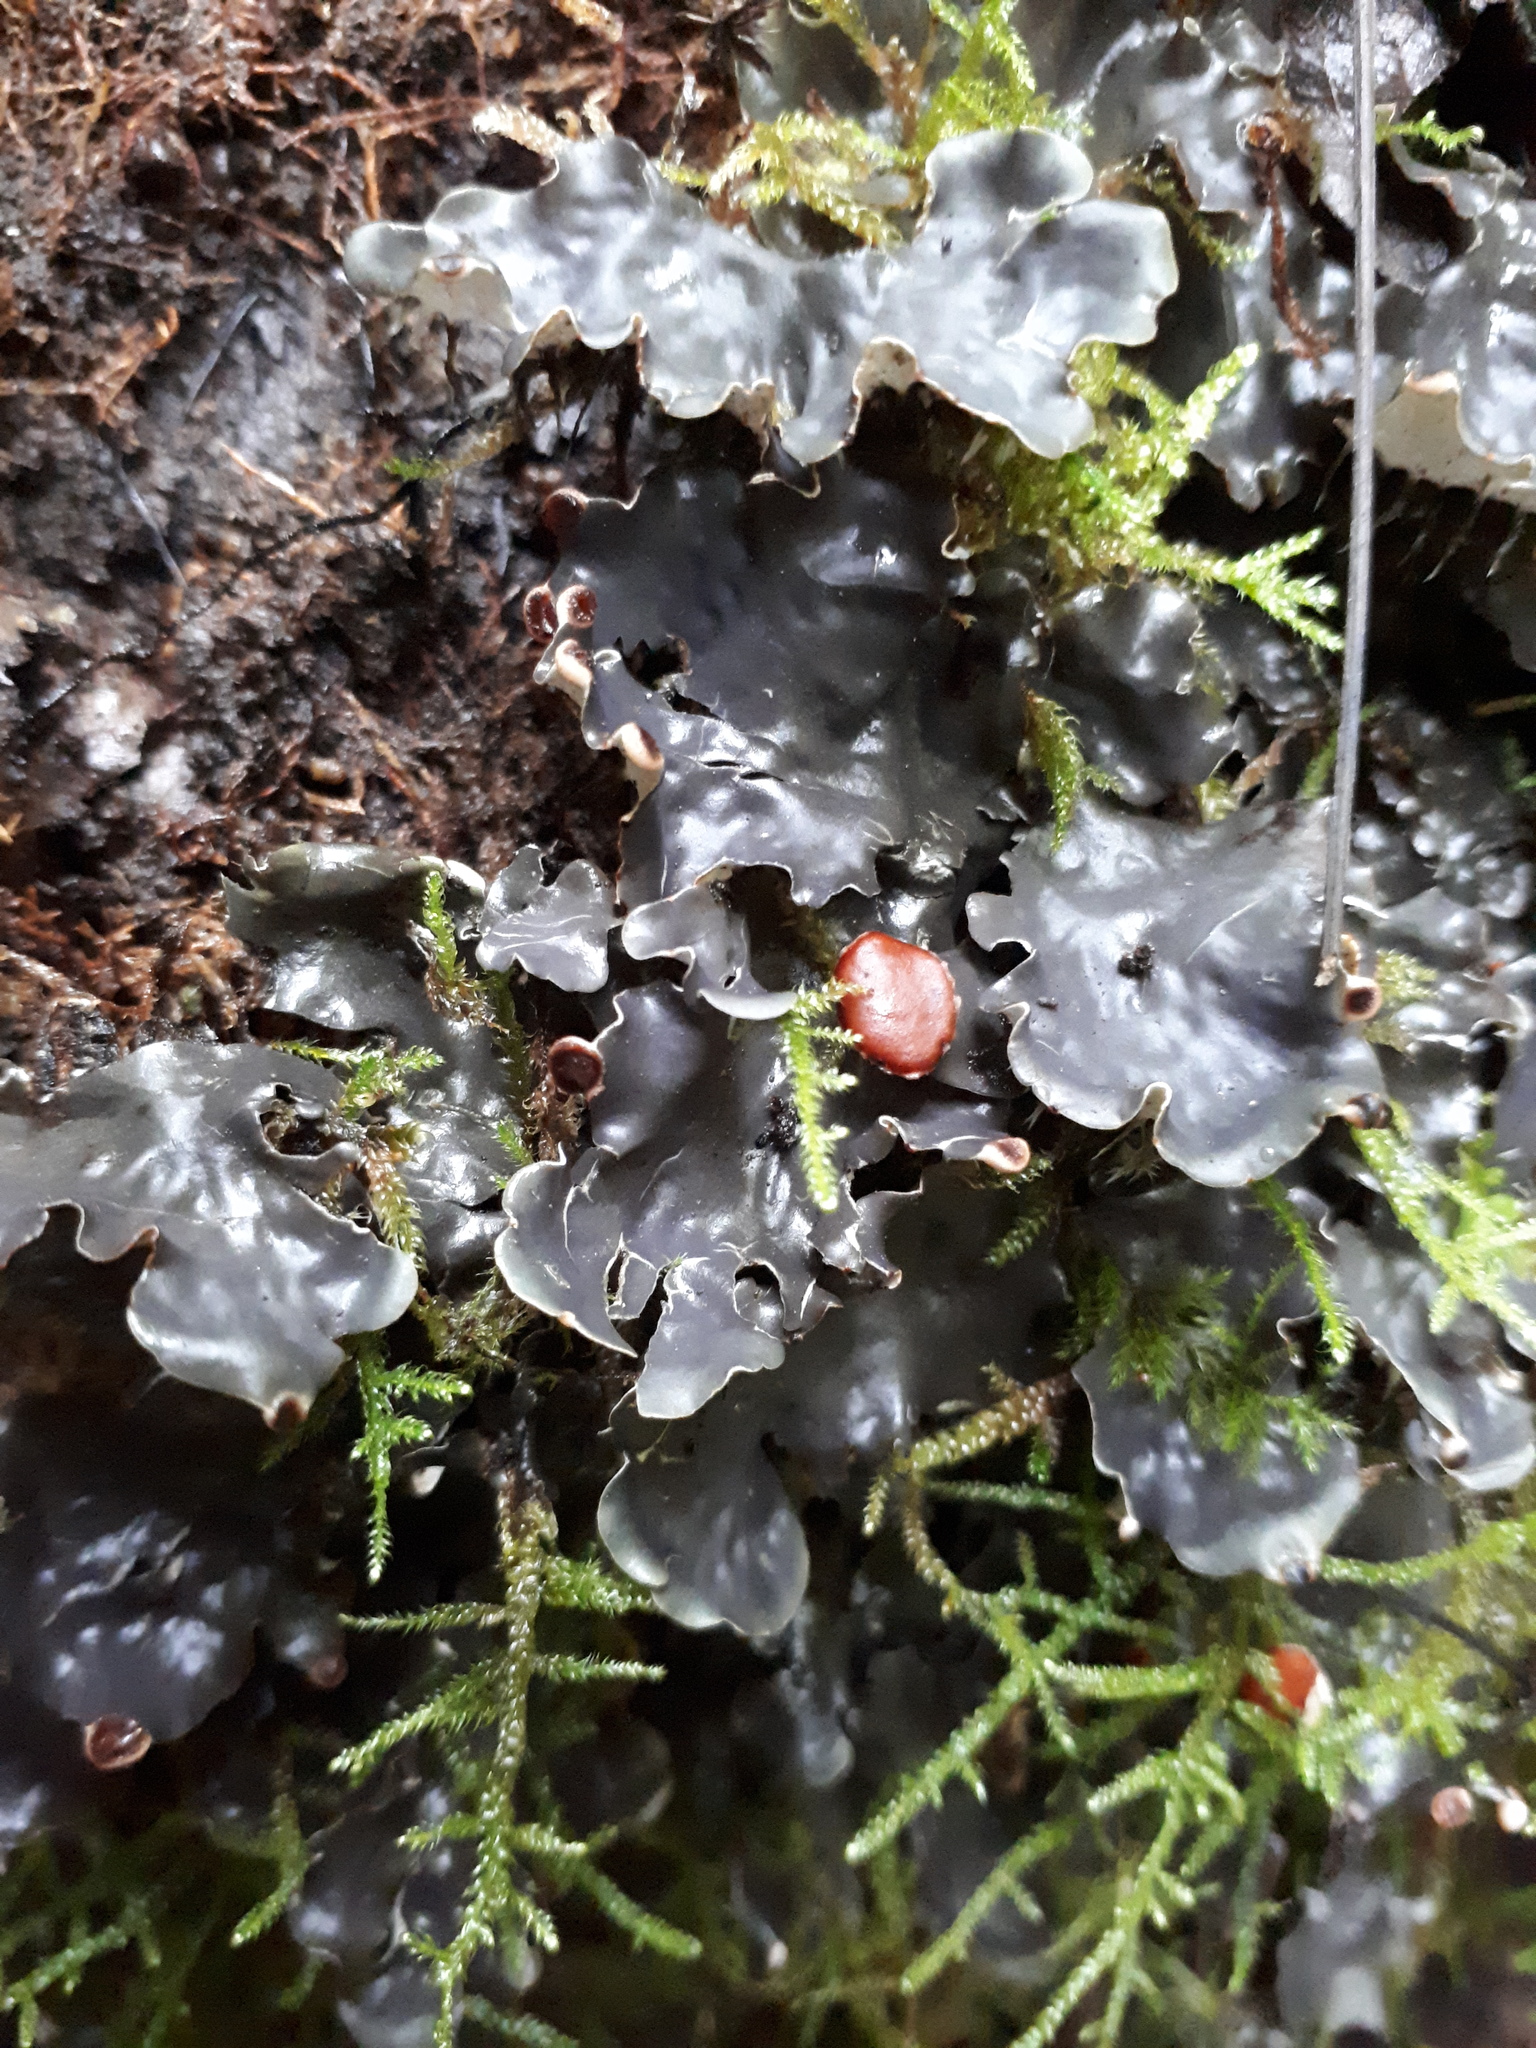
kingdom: Fungi
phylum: Ascomycota
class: Lecanoromycetes
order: Peltigerales
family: Peltigeraceae
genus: Peltigera
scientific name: Peltigera horizontalis
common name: Flat fruited pelt
